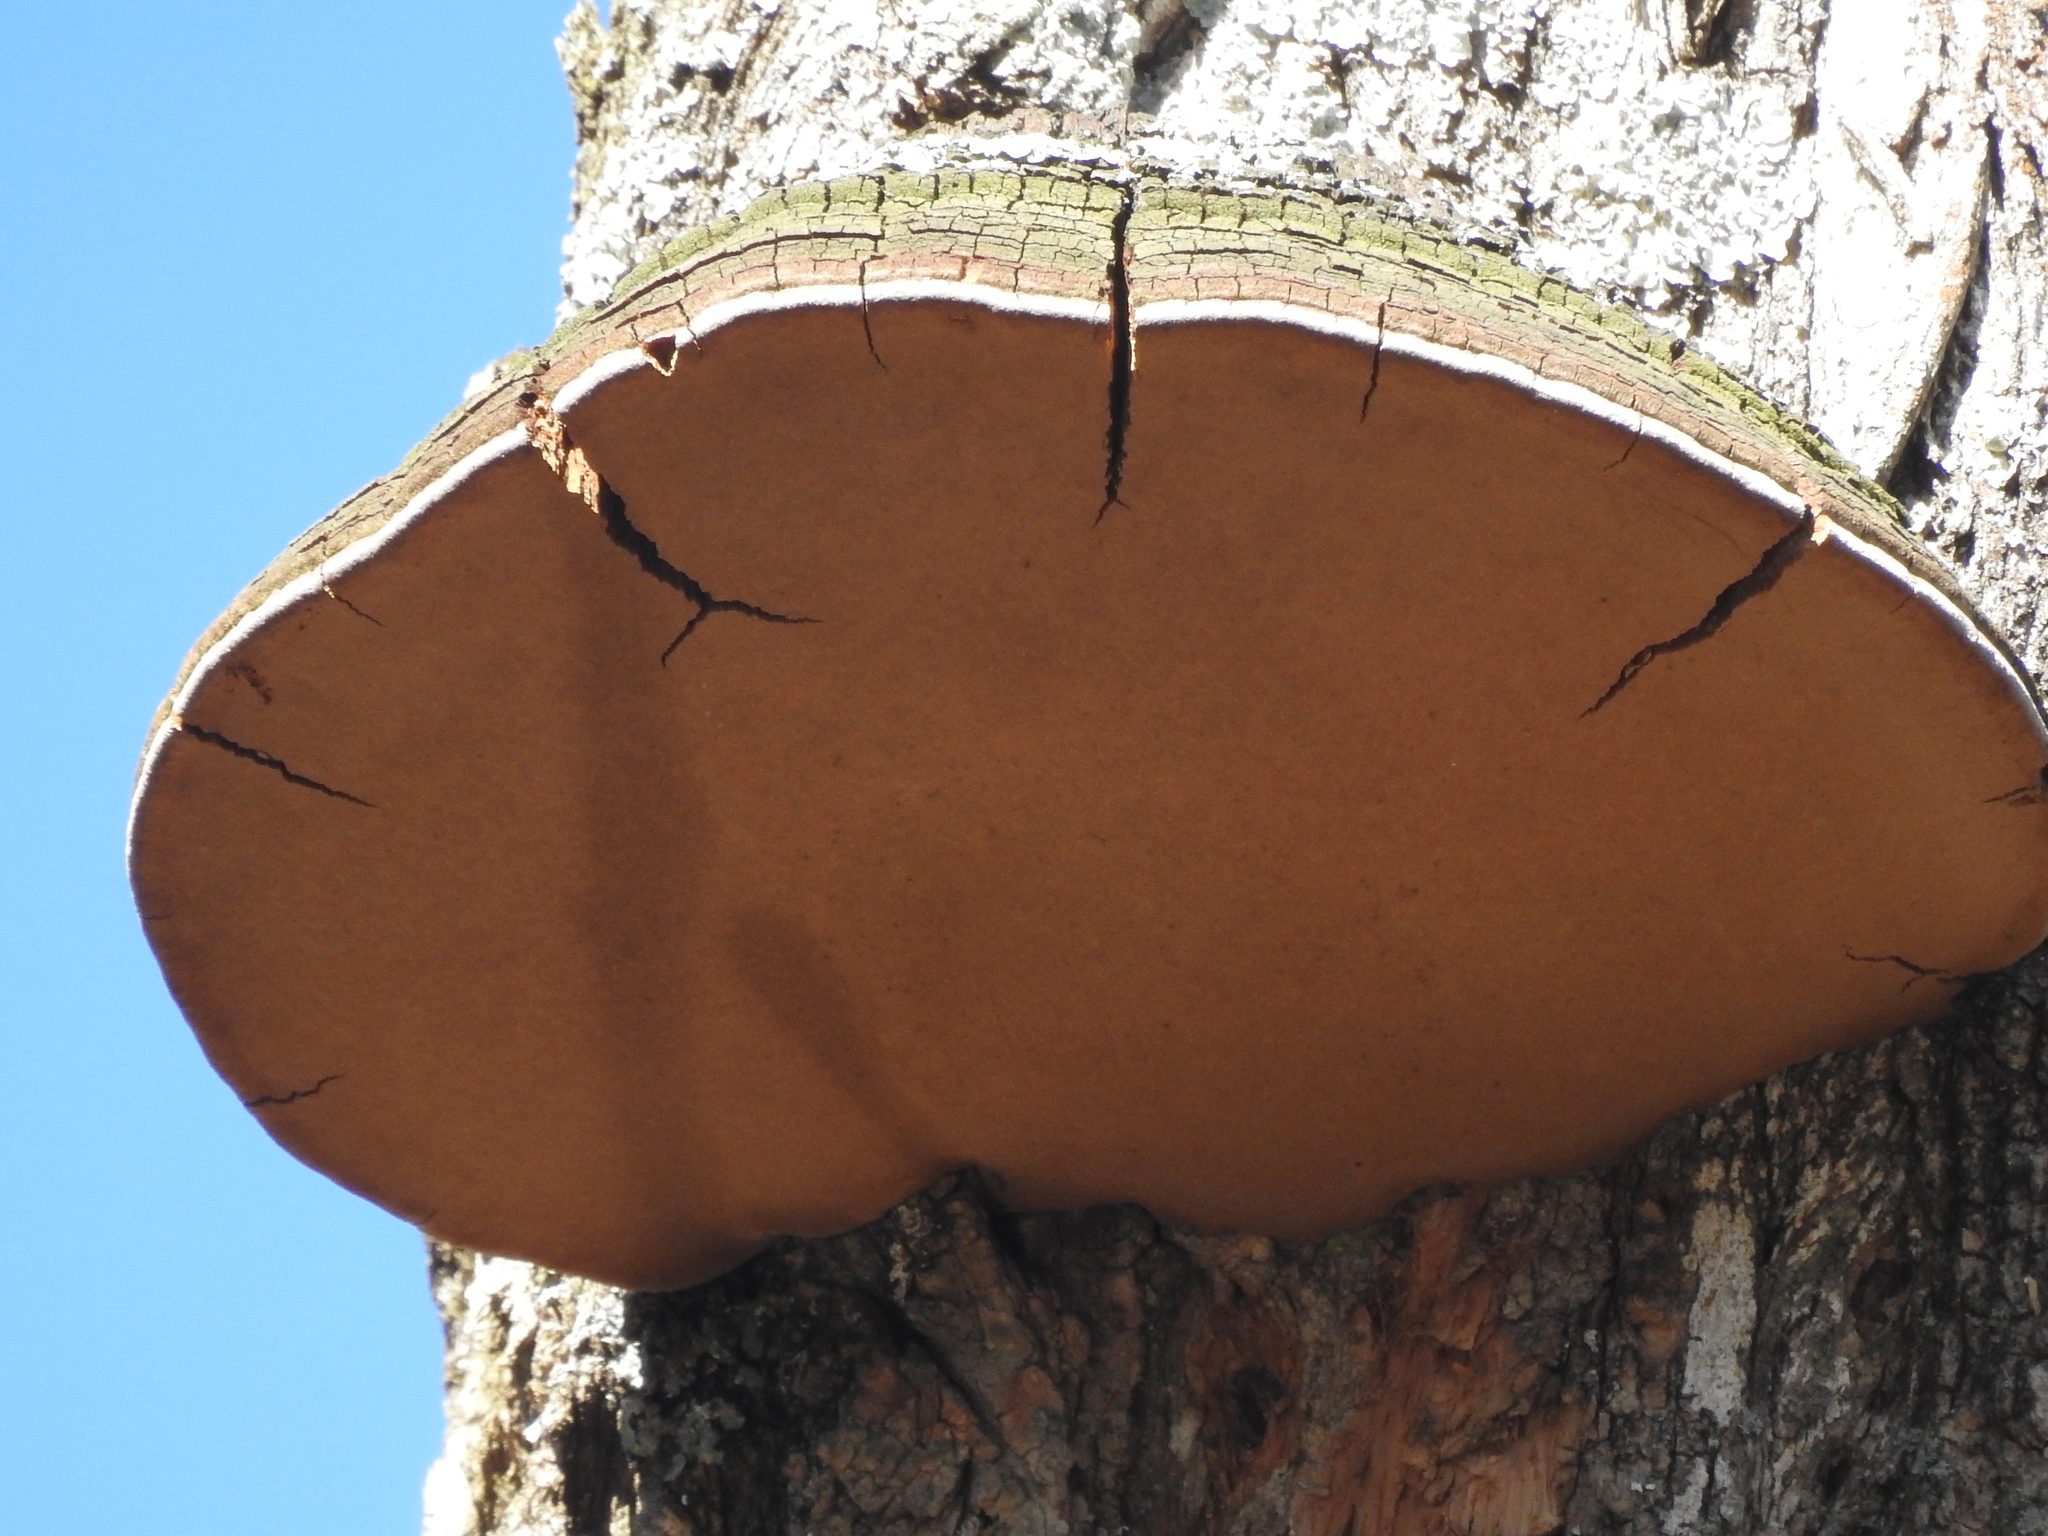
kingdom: Fungi
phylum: Basidiomycota
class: Agaricomycetes
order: Hymenochaetales
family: Hymenochaetaceae
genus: Phellinus
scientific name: Phellinus robiniae
